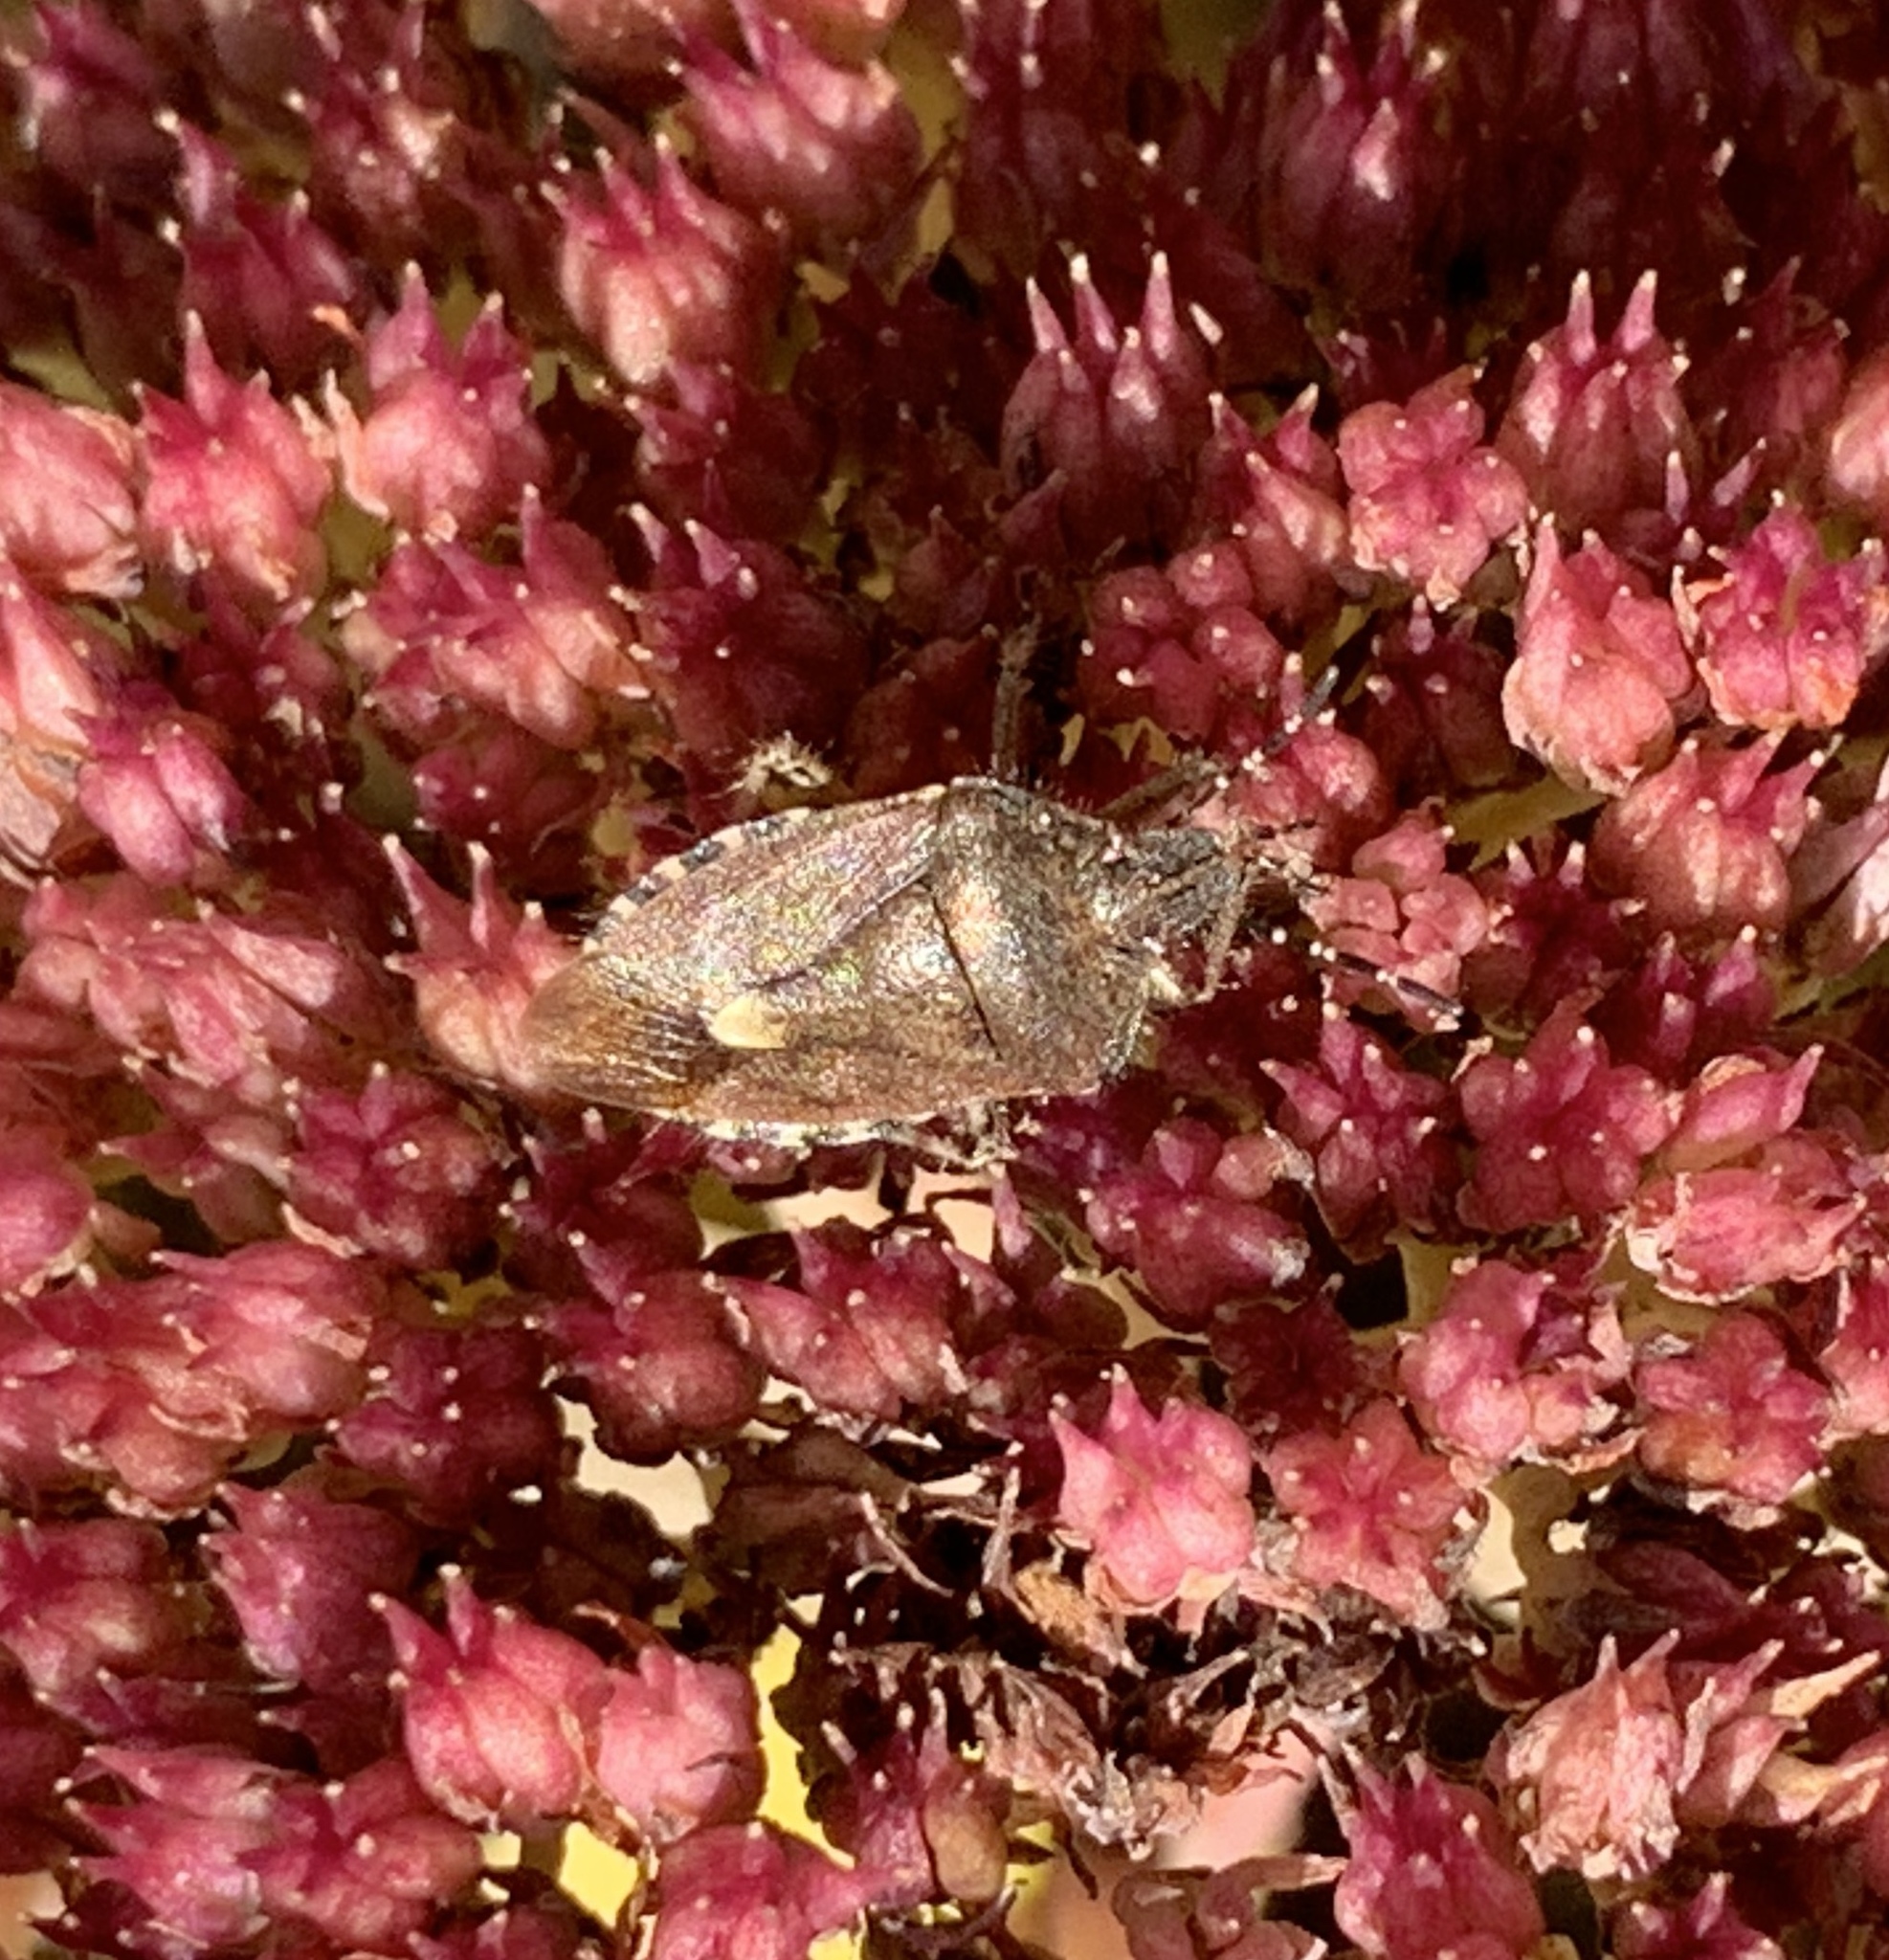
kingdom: Animalia
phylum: Arthropoda
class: Insecta
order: Hemiptera
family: Pentatomidae
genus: Dolycoris
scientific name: Dolycoris baccarum
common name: Sloe bug
